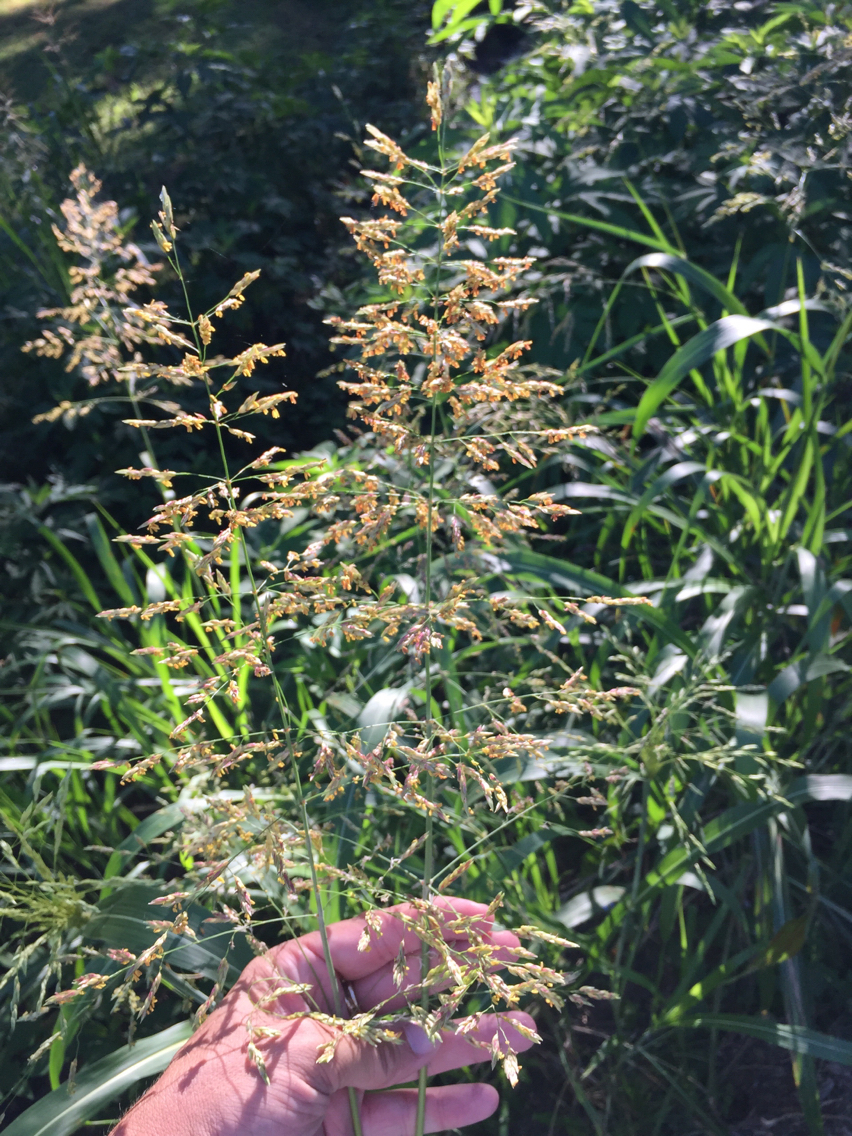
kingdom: Plantae
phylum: Tracheophyta
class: Liliopsida
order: Poales
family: Poaceae
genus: Sorghum
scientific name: Sorghum halepense
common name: Johnson-grass
